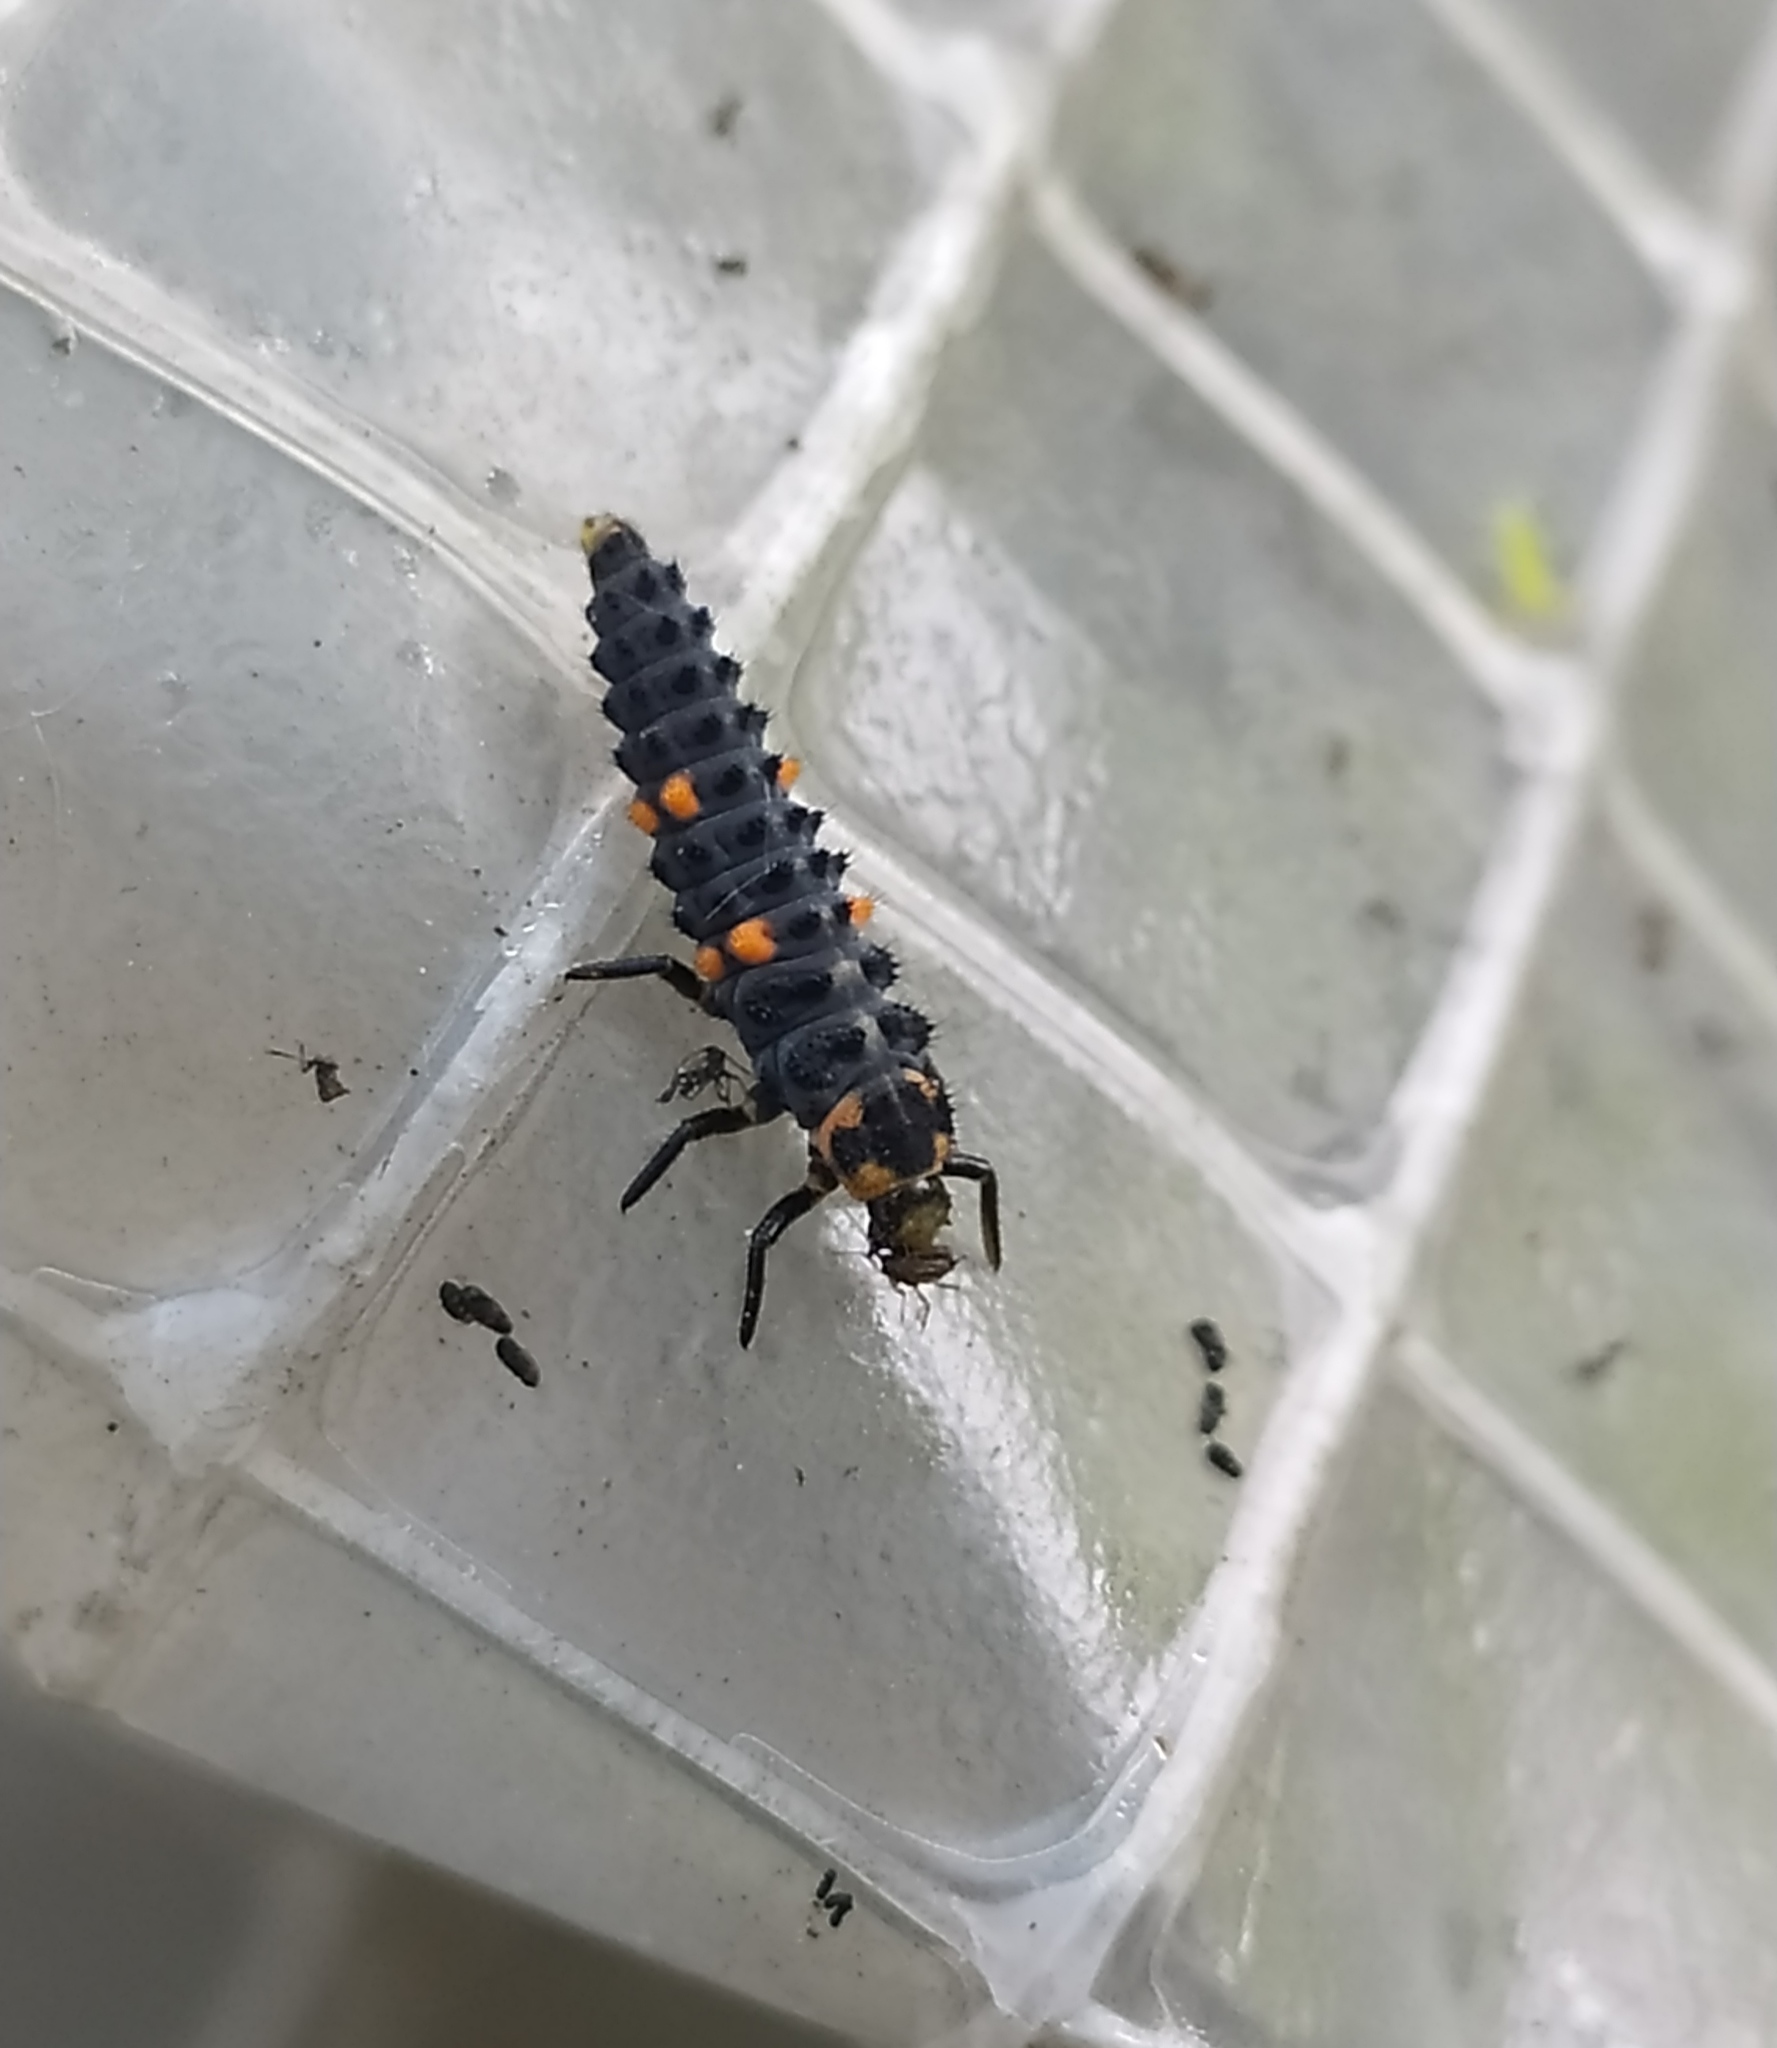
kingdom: Animalia
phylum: Arthropoda
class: Insecta
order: Coleoptera
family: Coccinellidae
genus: Coccinella
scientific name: Coccinella septempunctata
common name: Sevenspotted lady beetle
